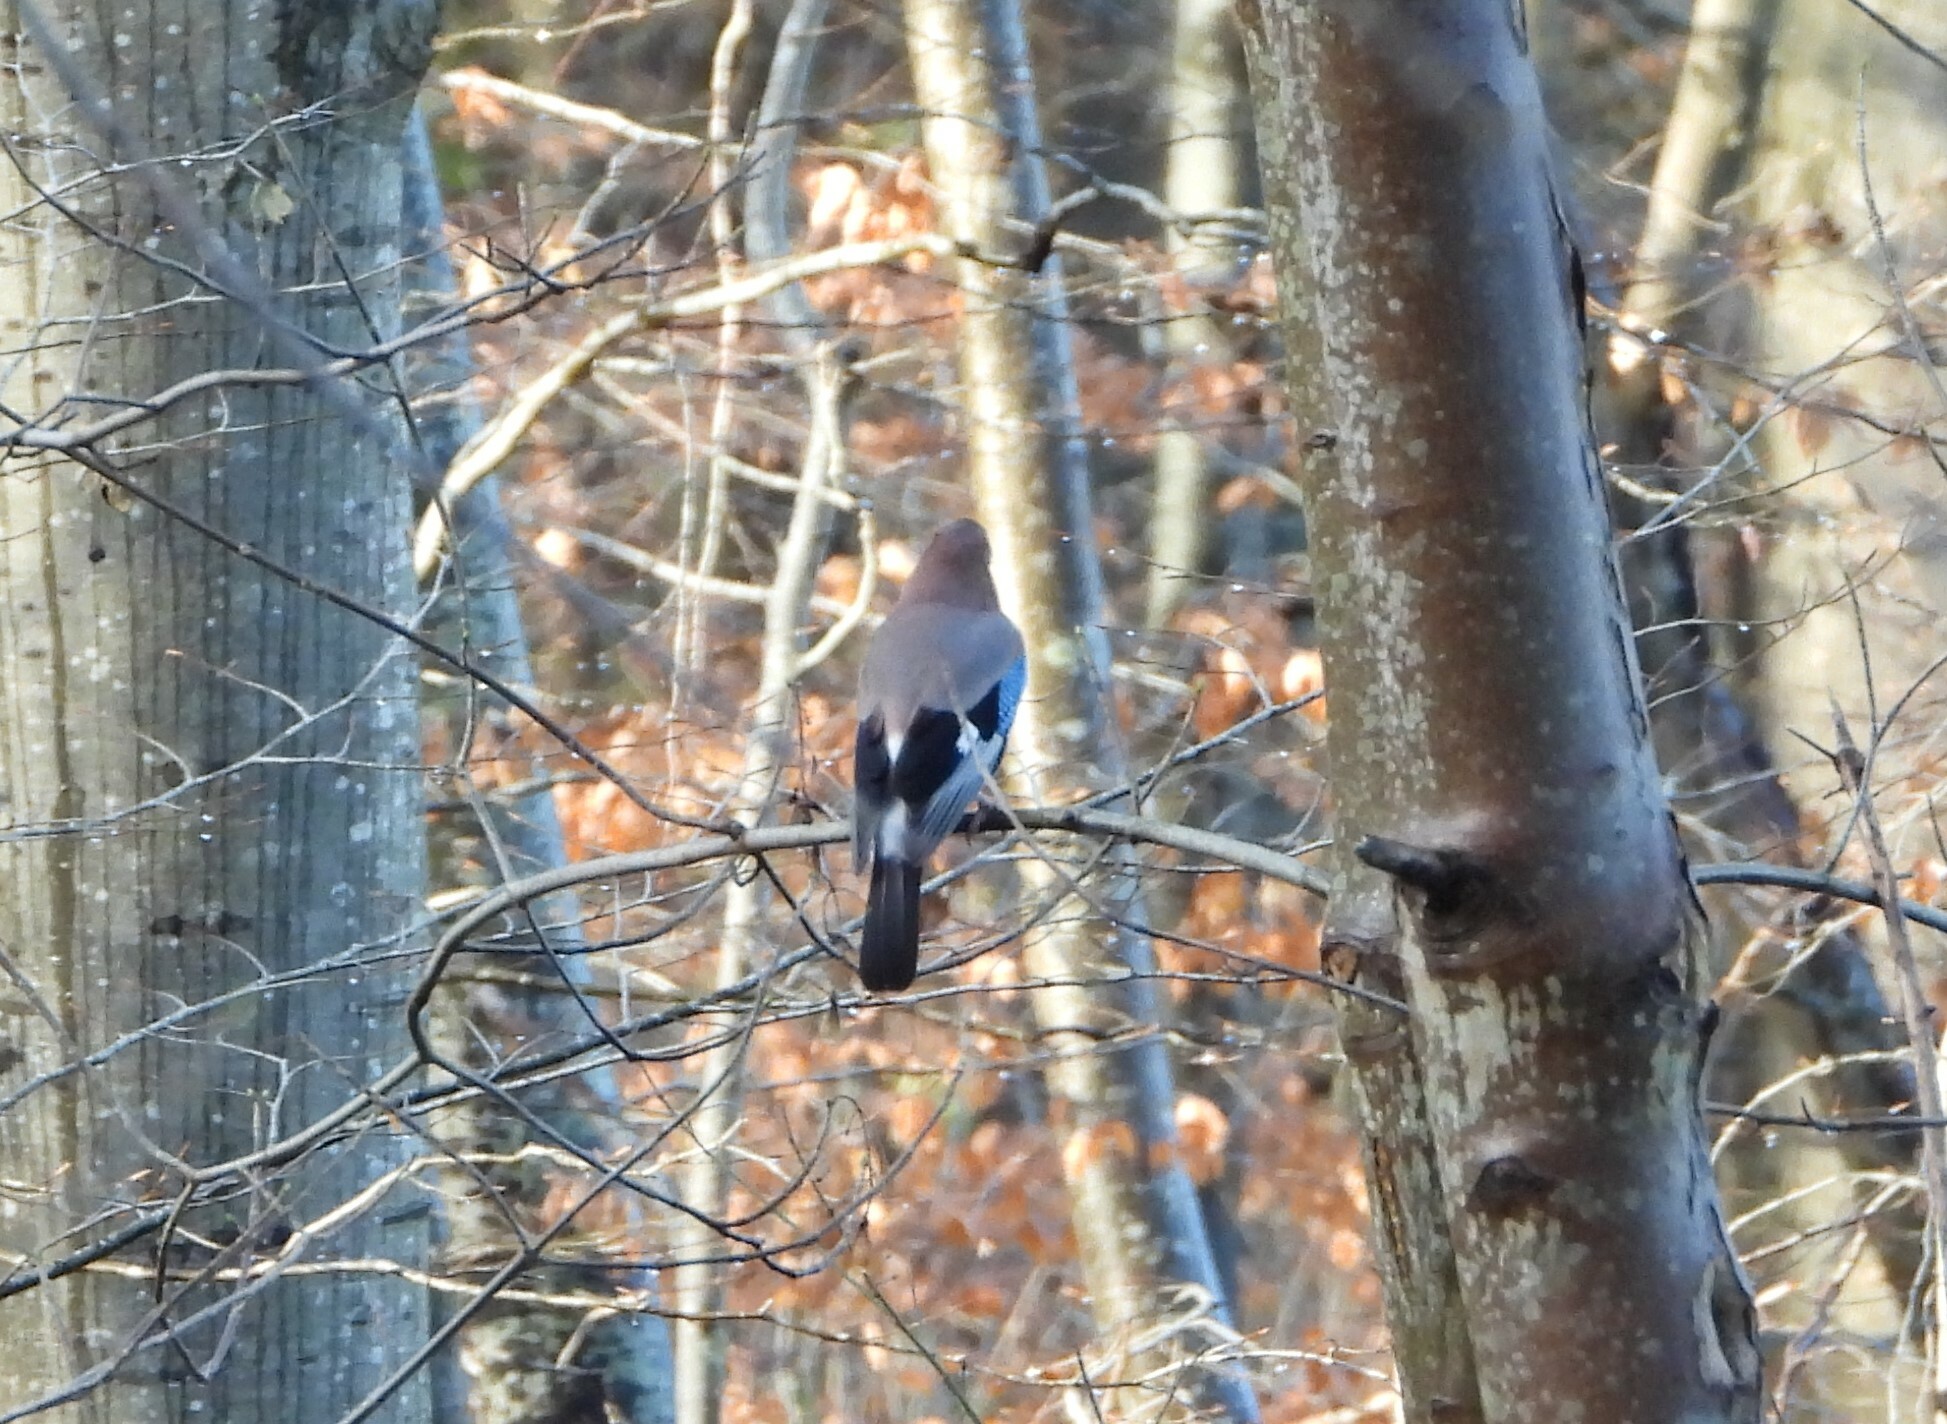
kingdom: Animalia
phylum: Chordata
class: Aves
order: Passeriformes
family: Corvidae
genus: Garrulus
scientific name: Garrulus glandarius
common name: Eurasian jay
